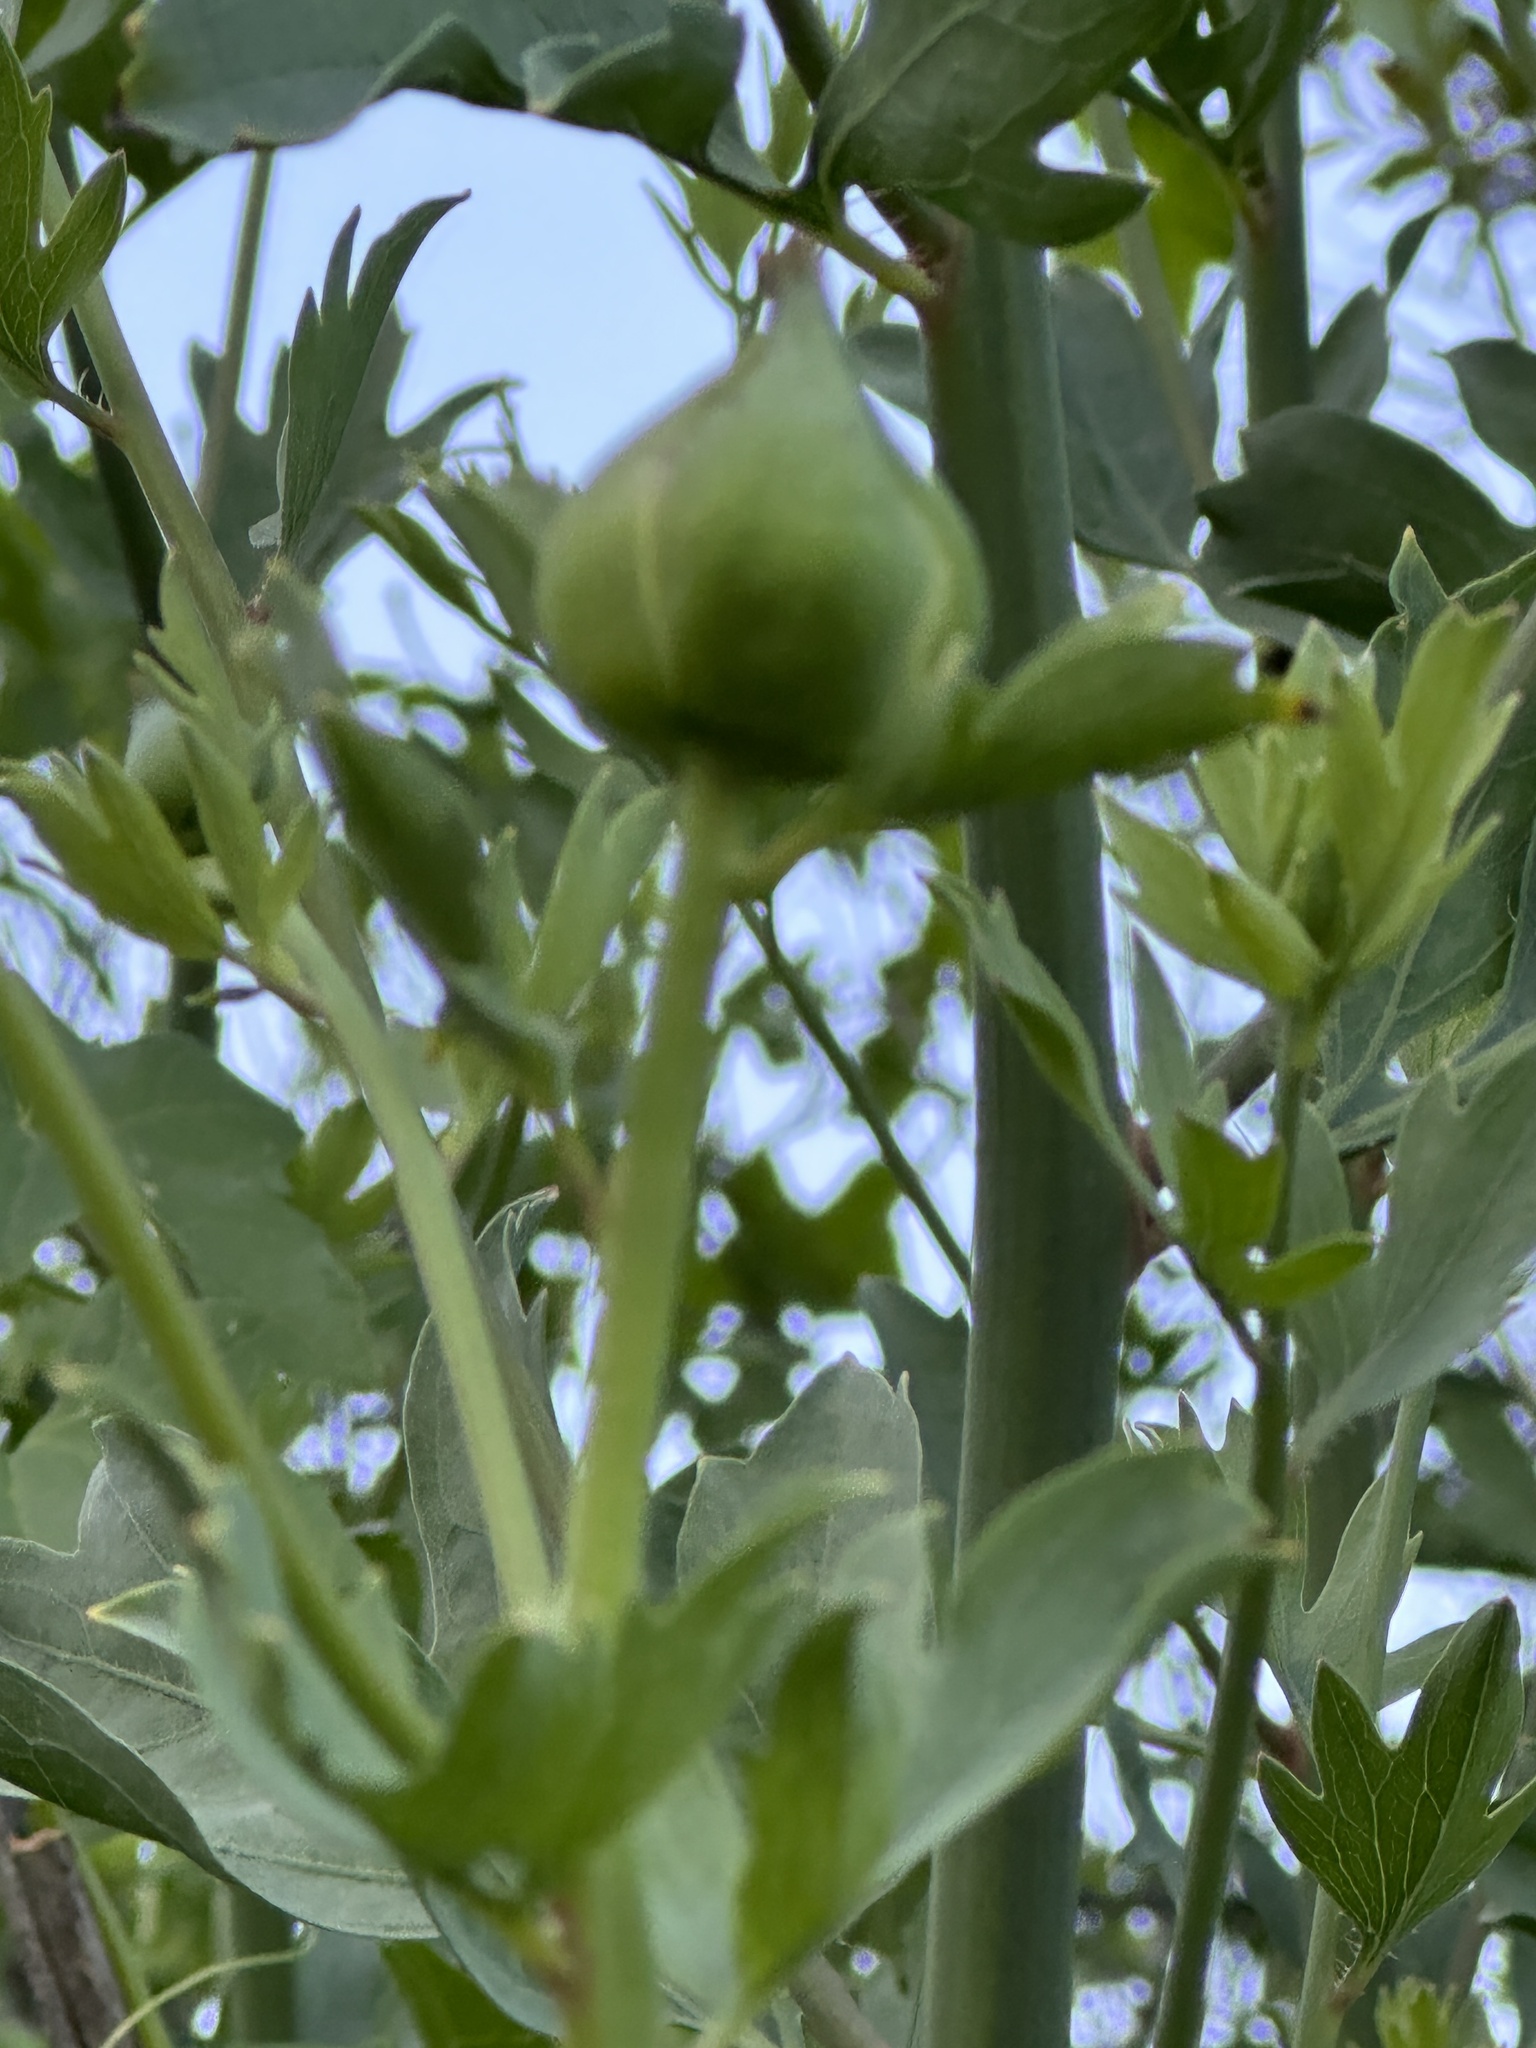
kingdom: Plantae
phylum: Tracheophyta
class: Magnoliopsida
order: Ranunculales
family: Papaveraceae
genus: Romneya
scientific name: Romneya coulteri
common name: California tree-poppy
